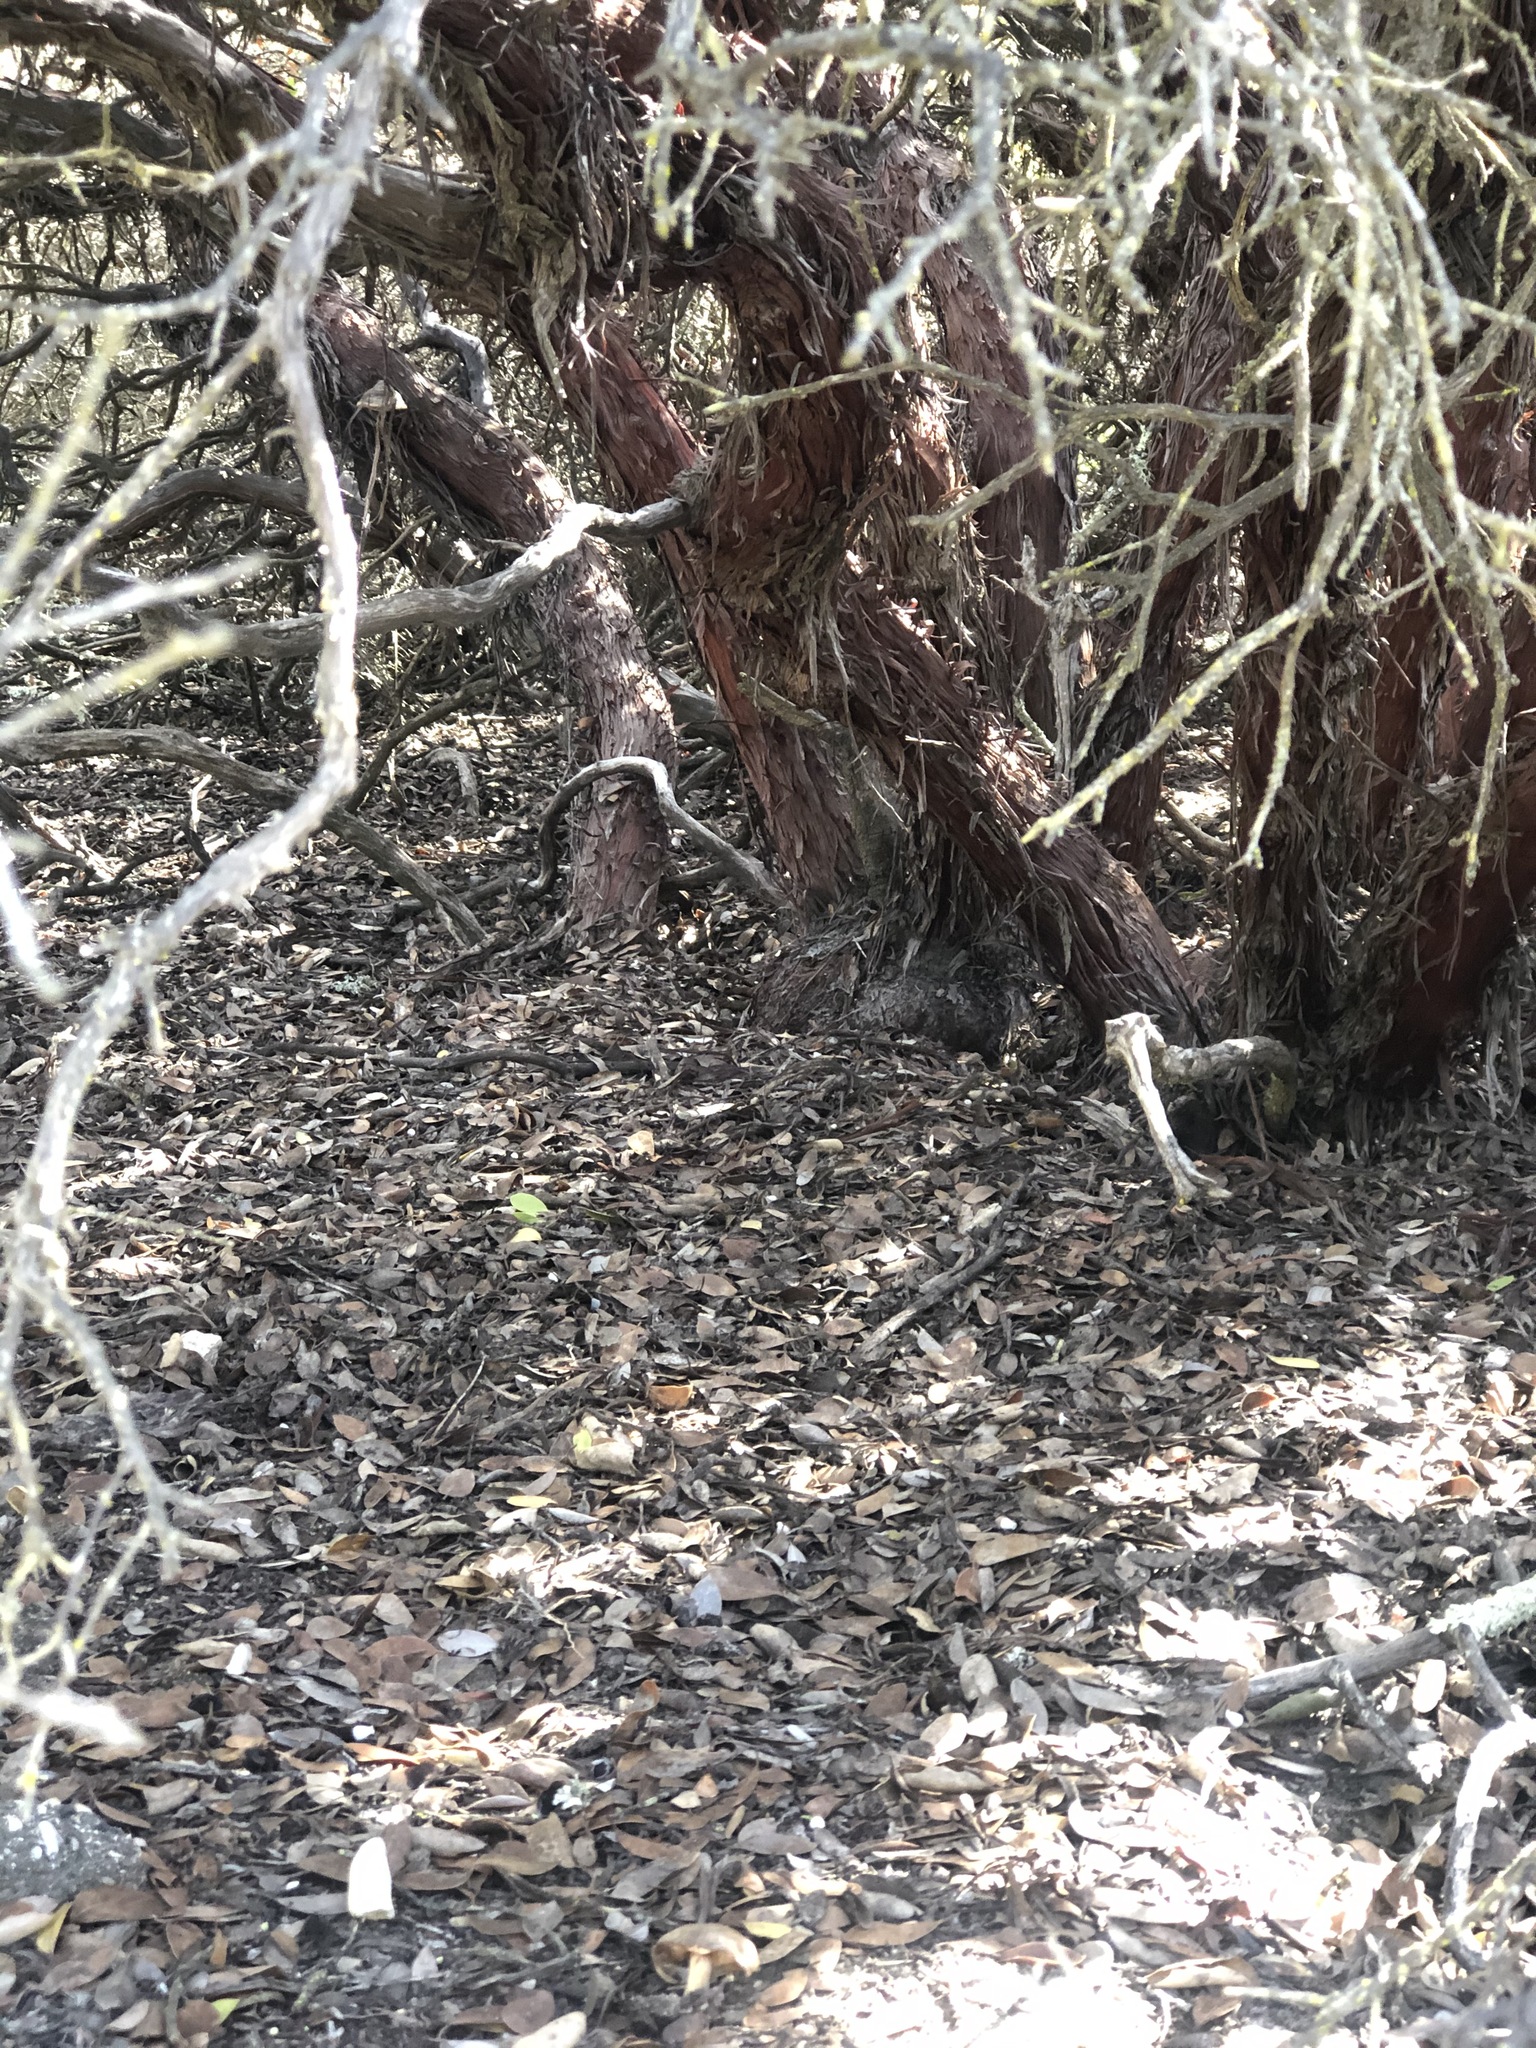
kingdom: Plantae
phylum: Tracheophyta
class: Magnoliopsida
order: Ericales
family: Ericaceae
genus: Arctostaphylos
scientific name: Arctostaphylos rudis
